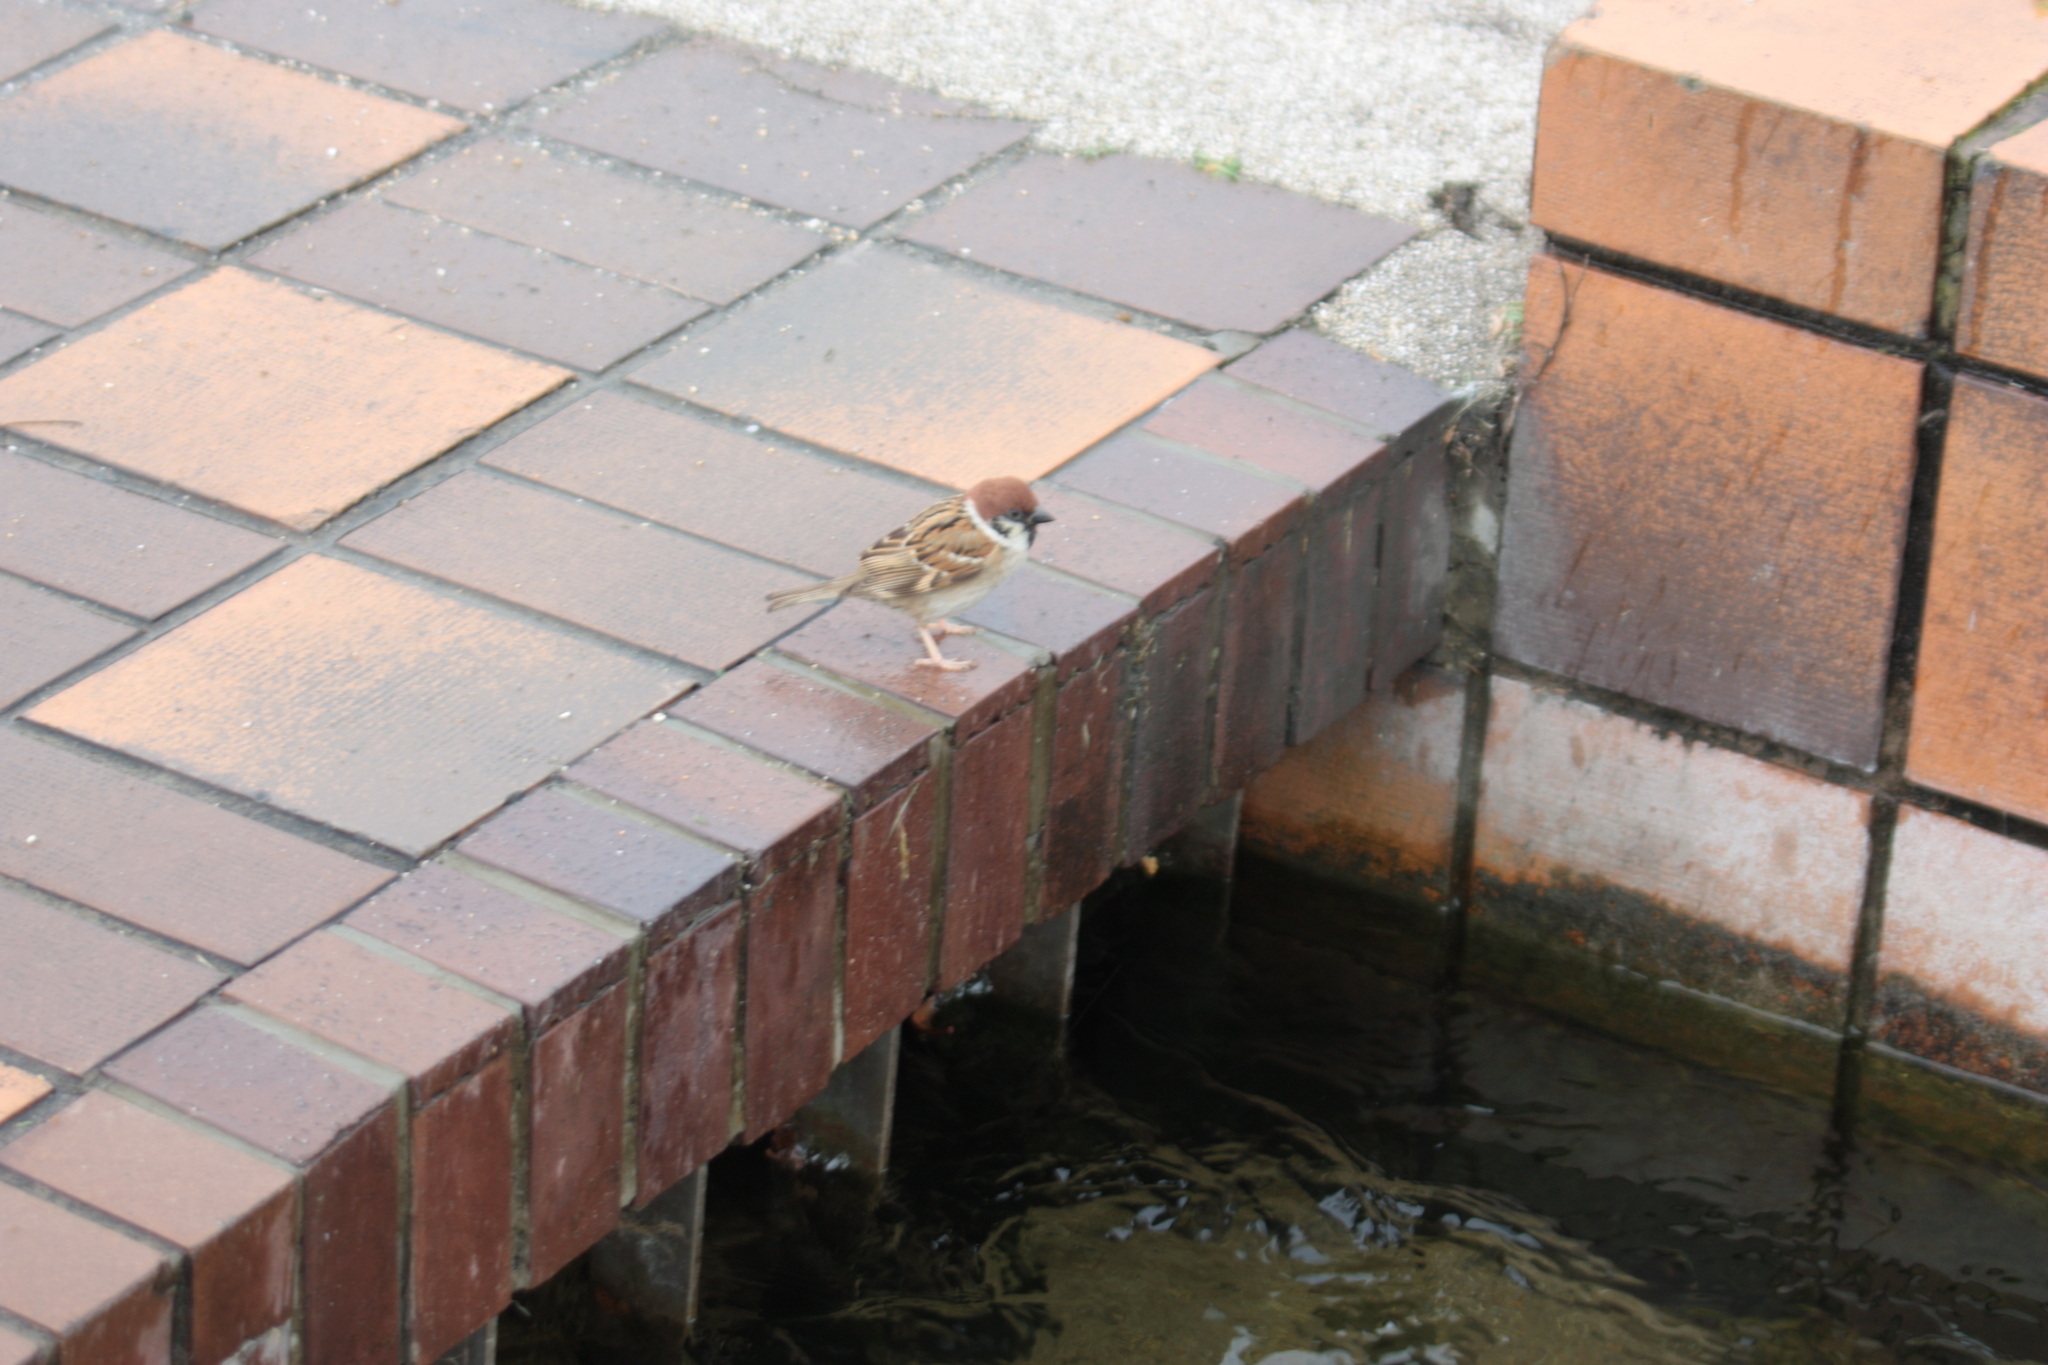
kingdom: Animalia
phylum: Chordata
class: Aves
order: Passeriformes
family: Passeridae
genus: Passer
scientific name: Passer montanus
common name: Eurasian tree sparrow
